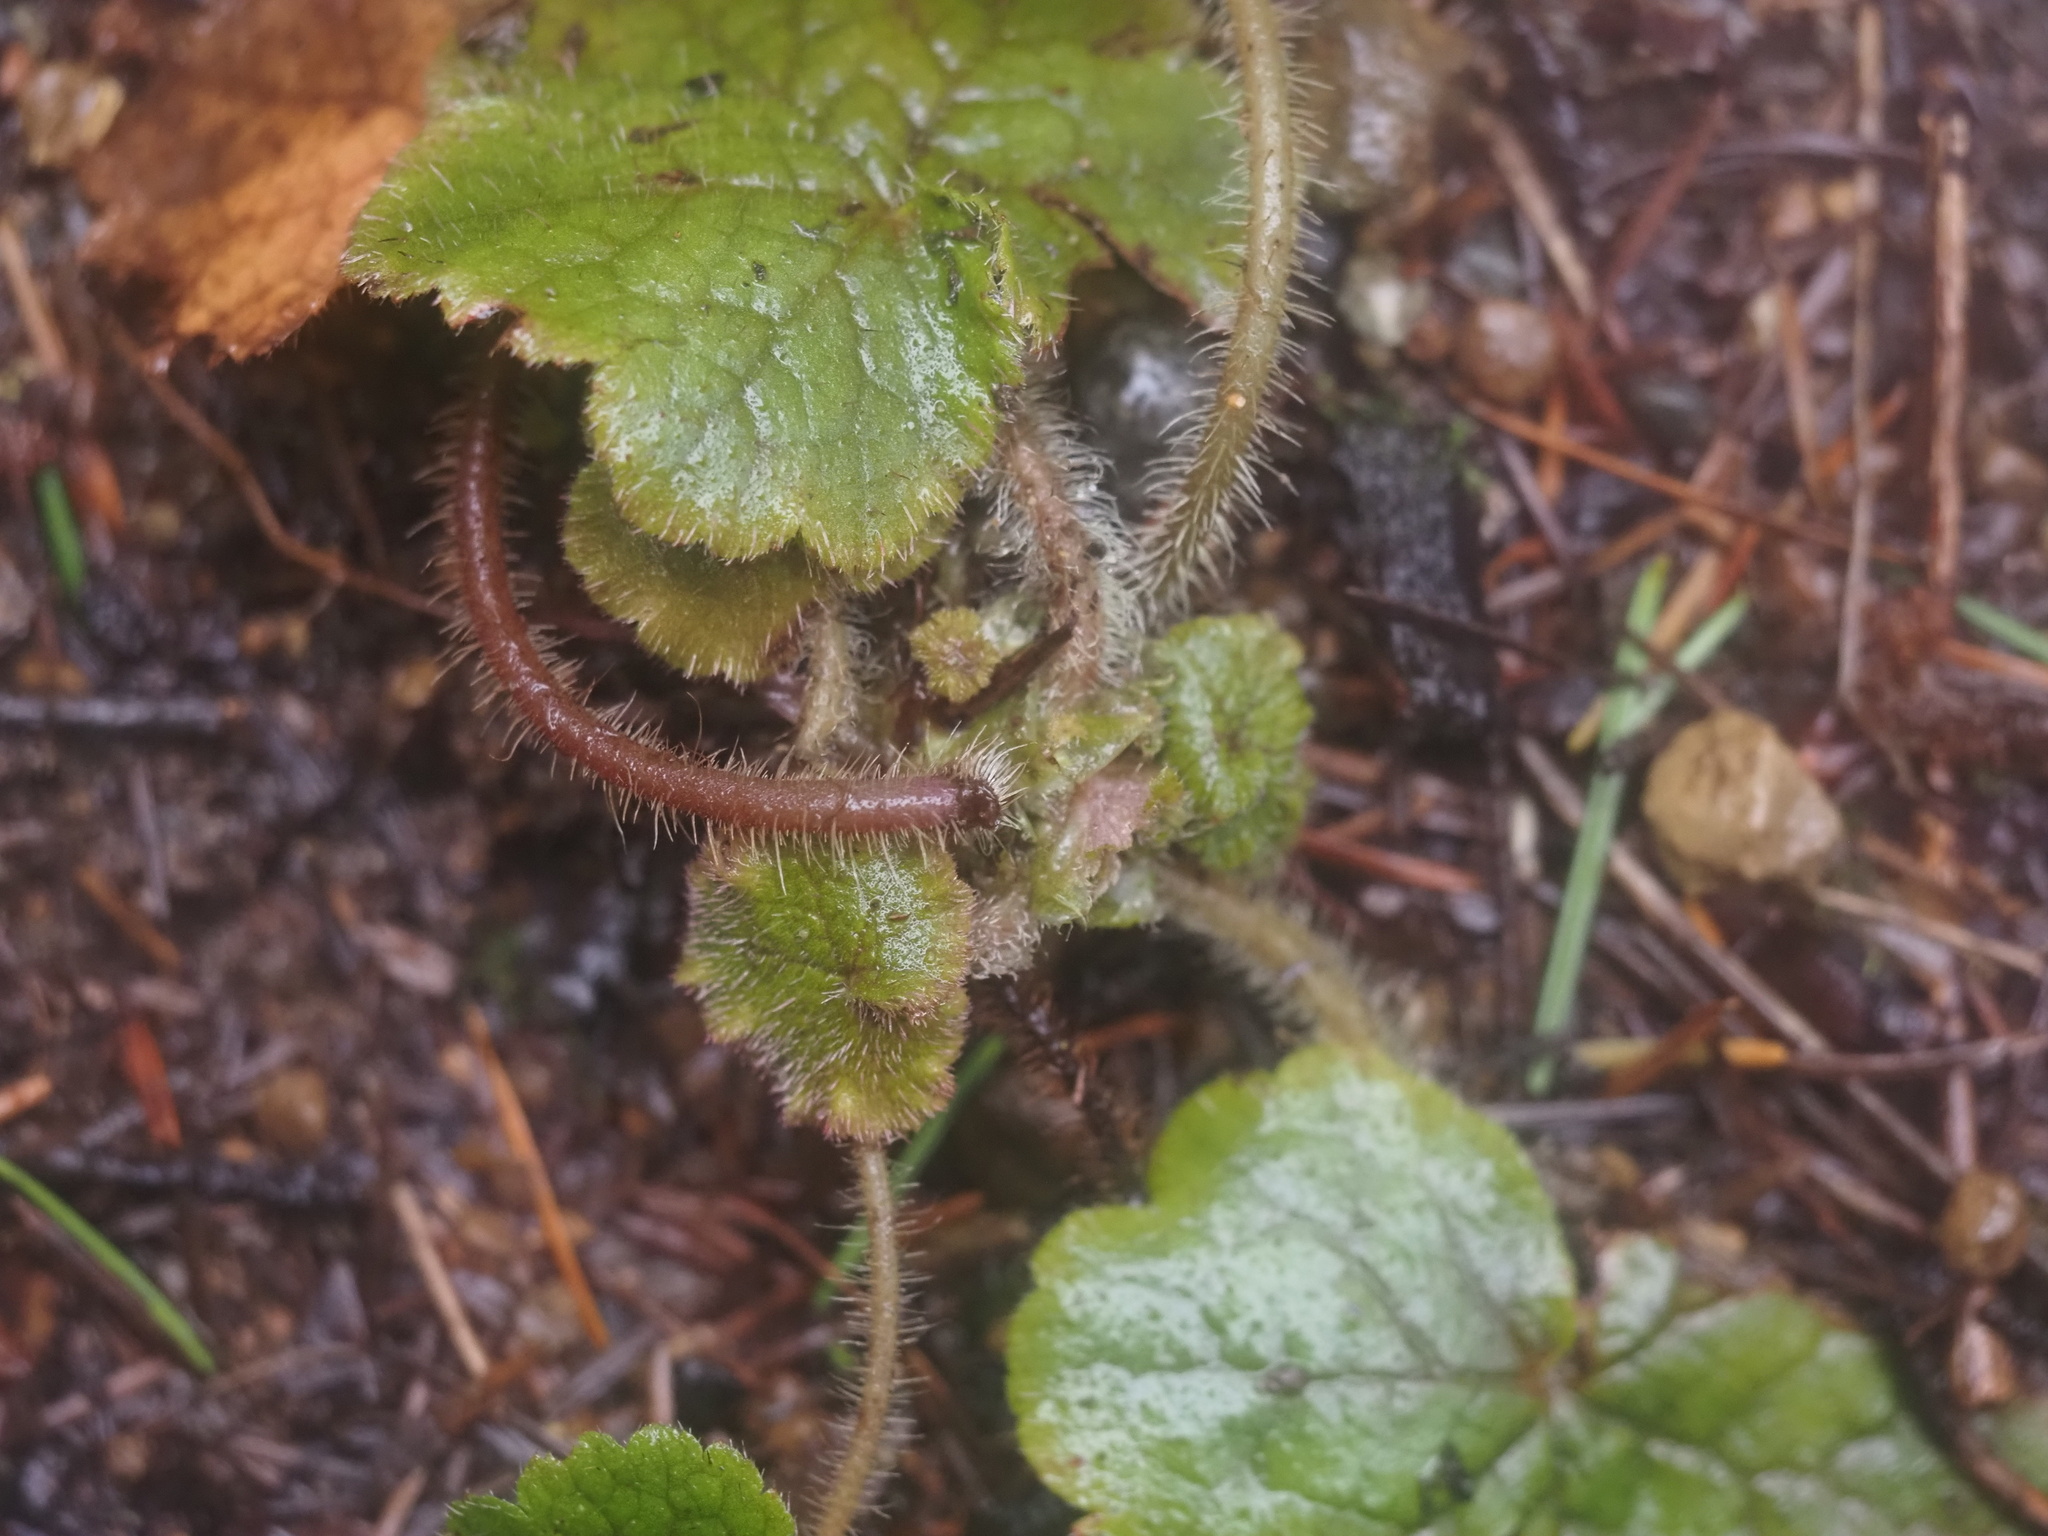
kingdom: Plantae
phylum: Tracheophyta
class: Magnoliopsida
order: Saxifragales
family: Saxifragaceae
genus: Tellima
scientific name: Tellima grandiflora
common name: Fringecups
